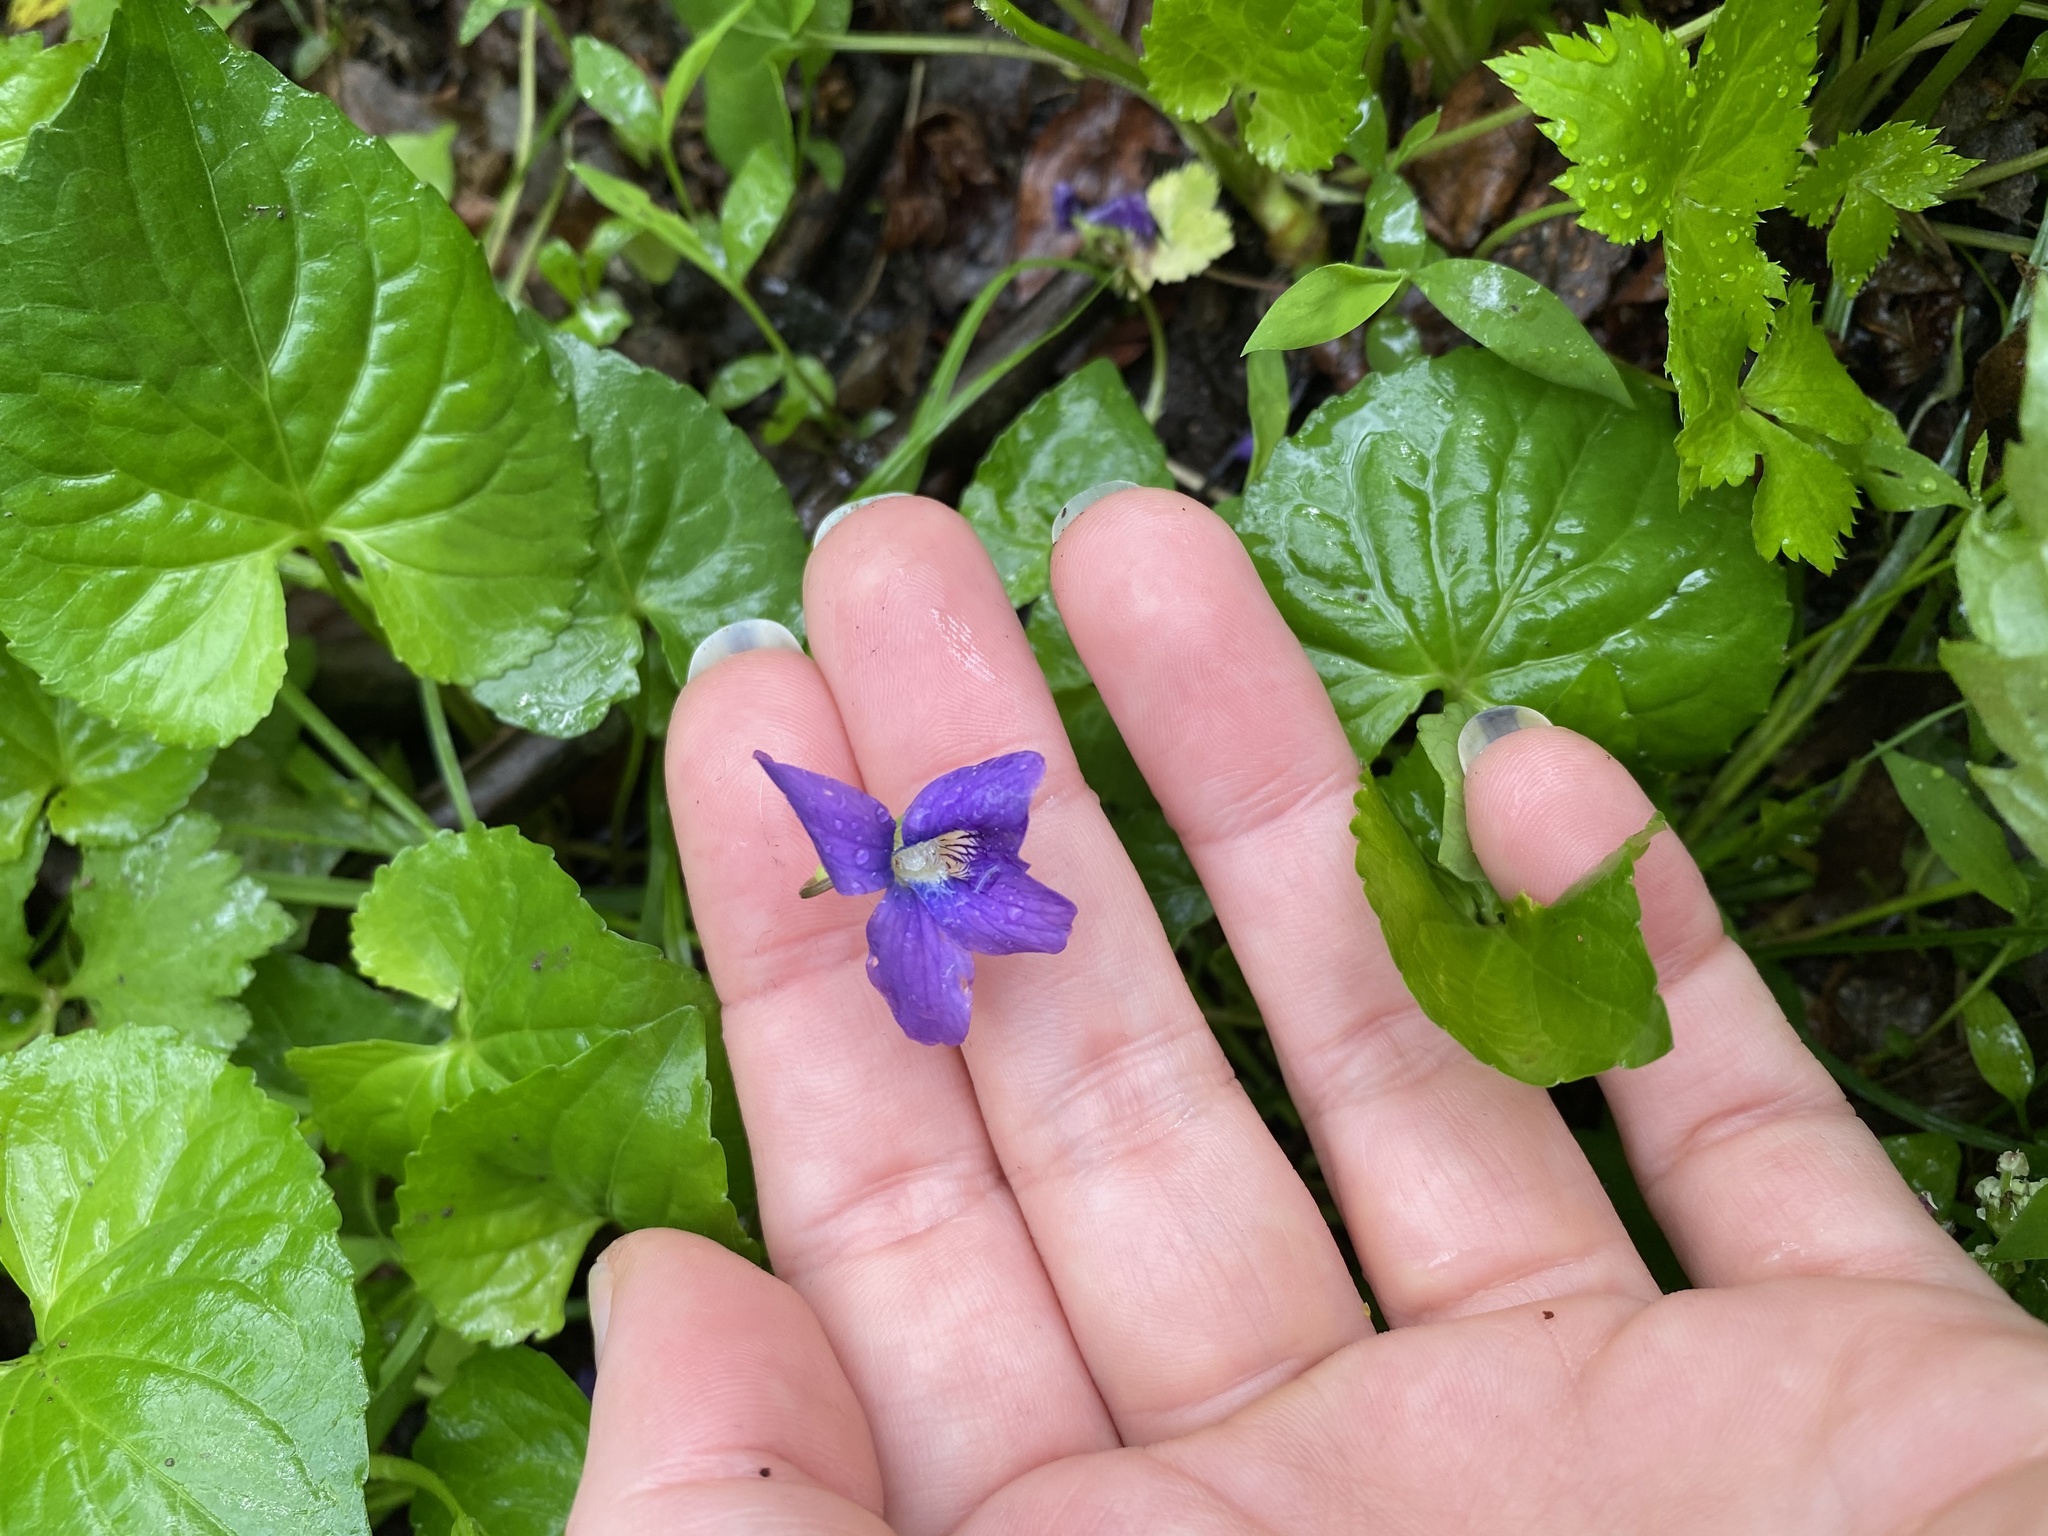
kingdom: Plantae
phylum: Tracheophyta
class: Magnoliopsida
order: Malpighiales
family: Violaceae
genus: Viola
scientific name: Viola sororia
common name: Dooryard violet
